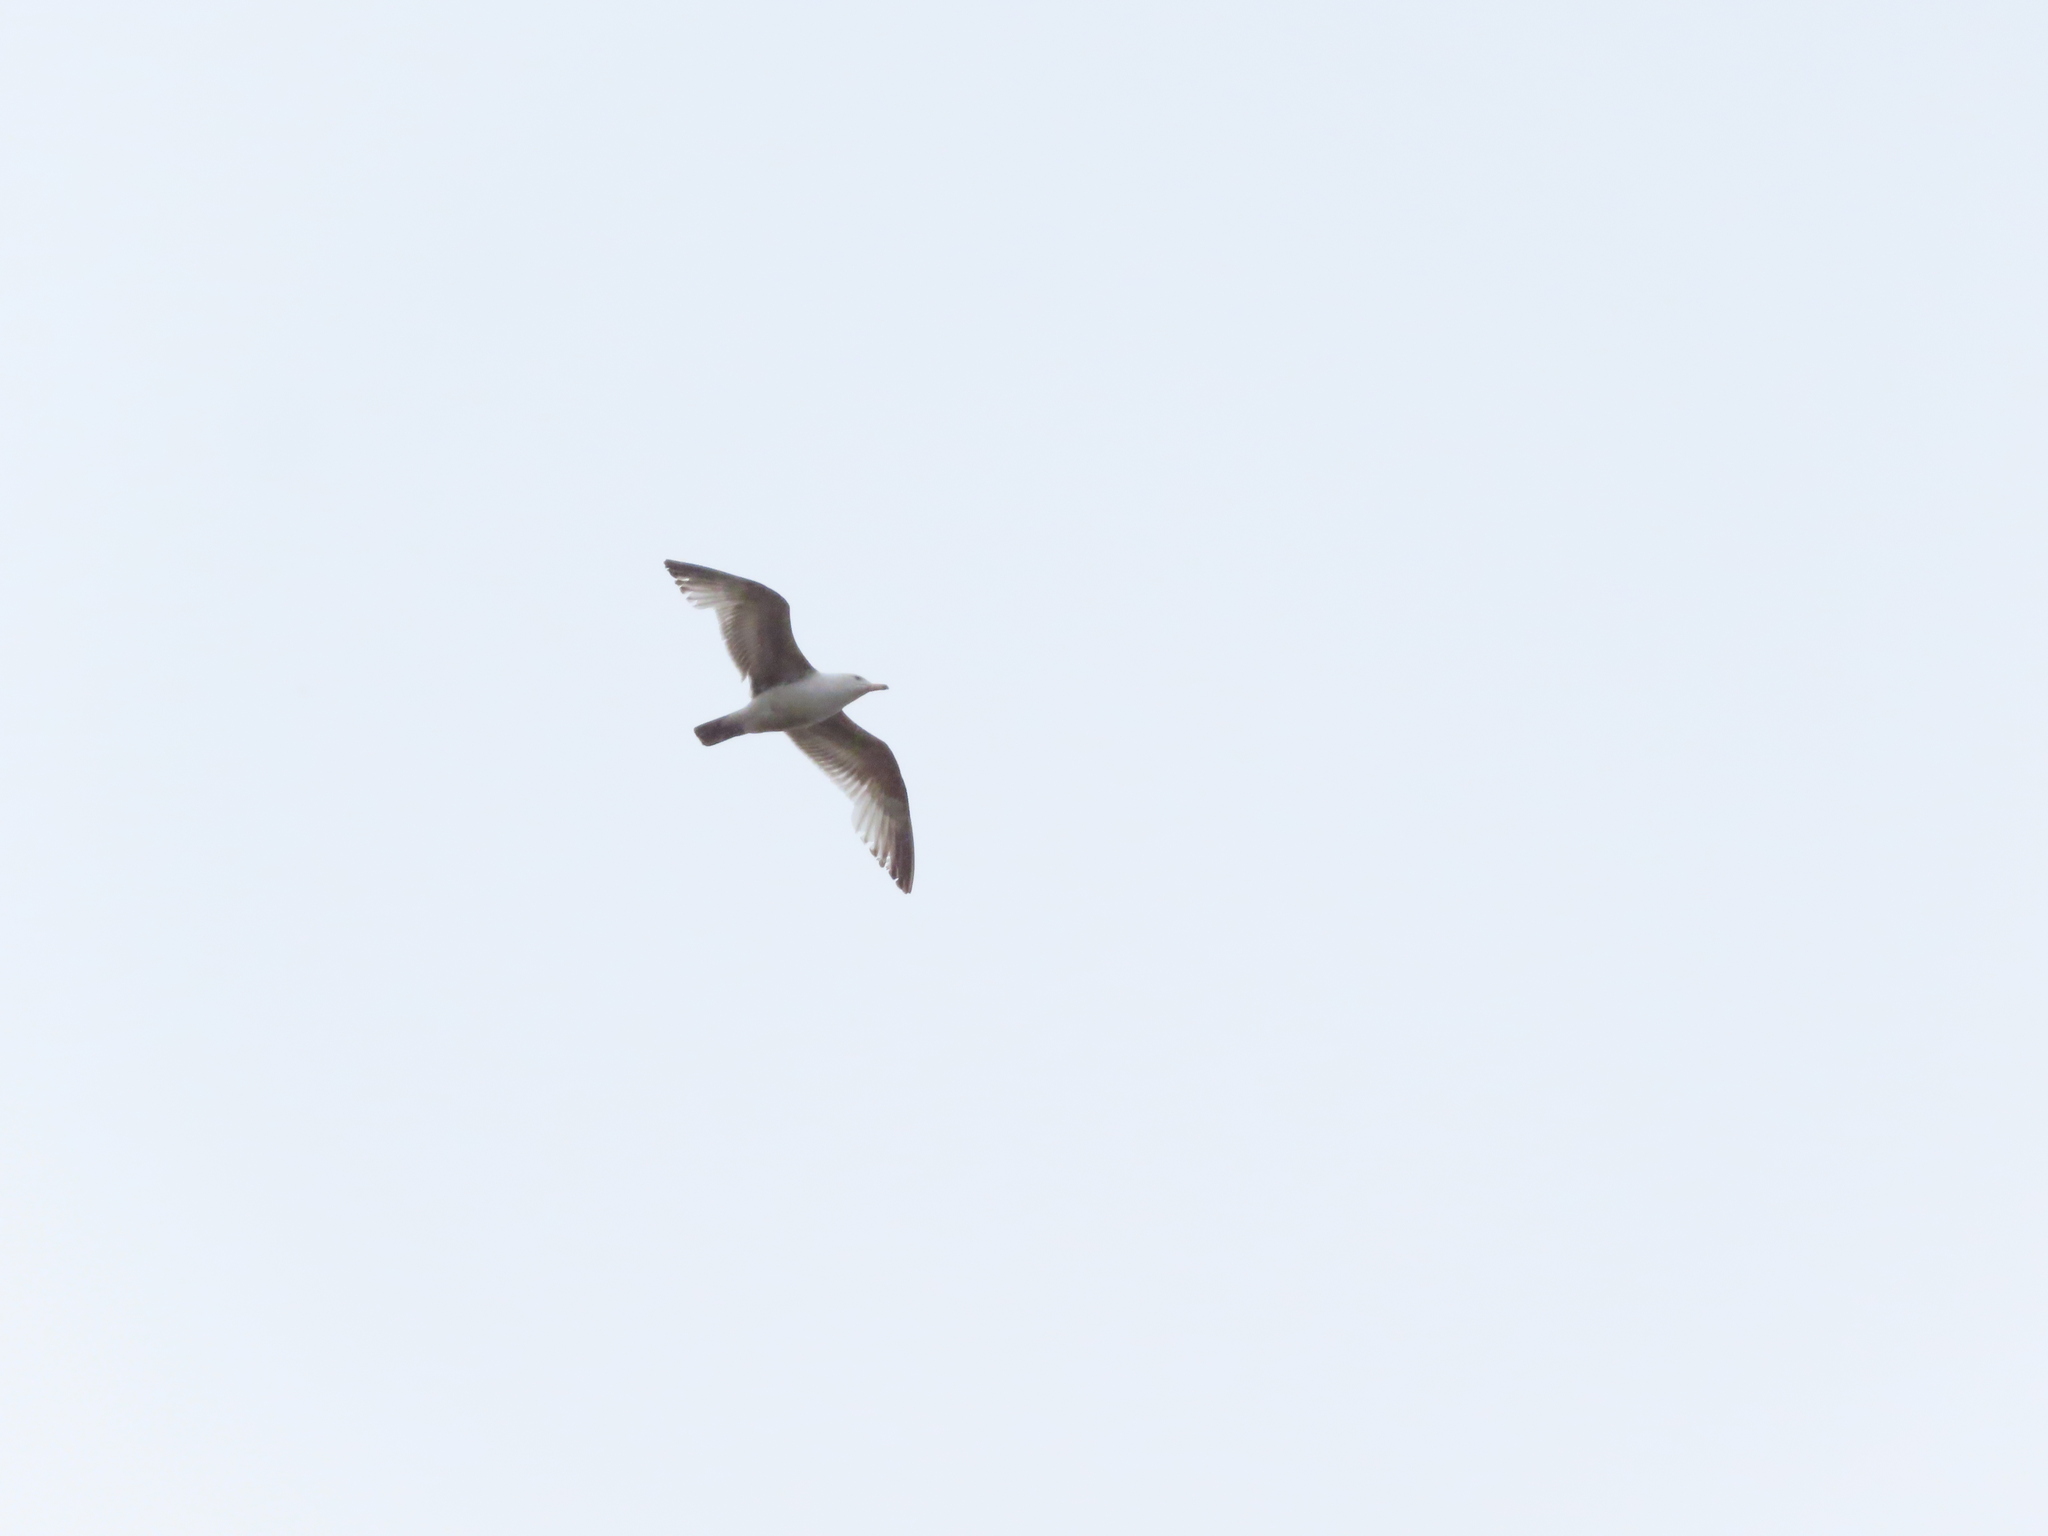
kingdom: Animalia
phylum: Chordata
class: Aves
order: Charadriiformes
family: Laridae
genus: Larus
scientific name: Larus delawarensis
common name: Ring-billed gull
